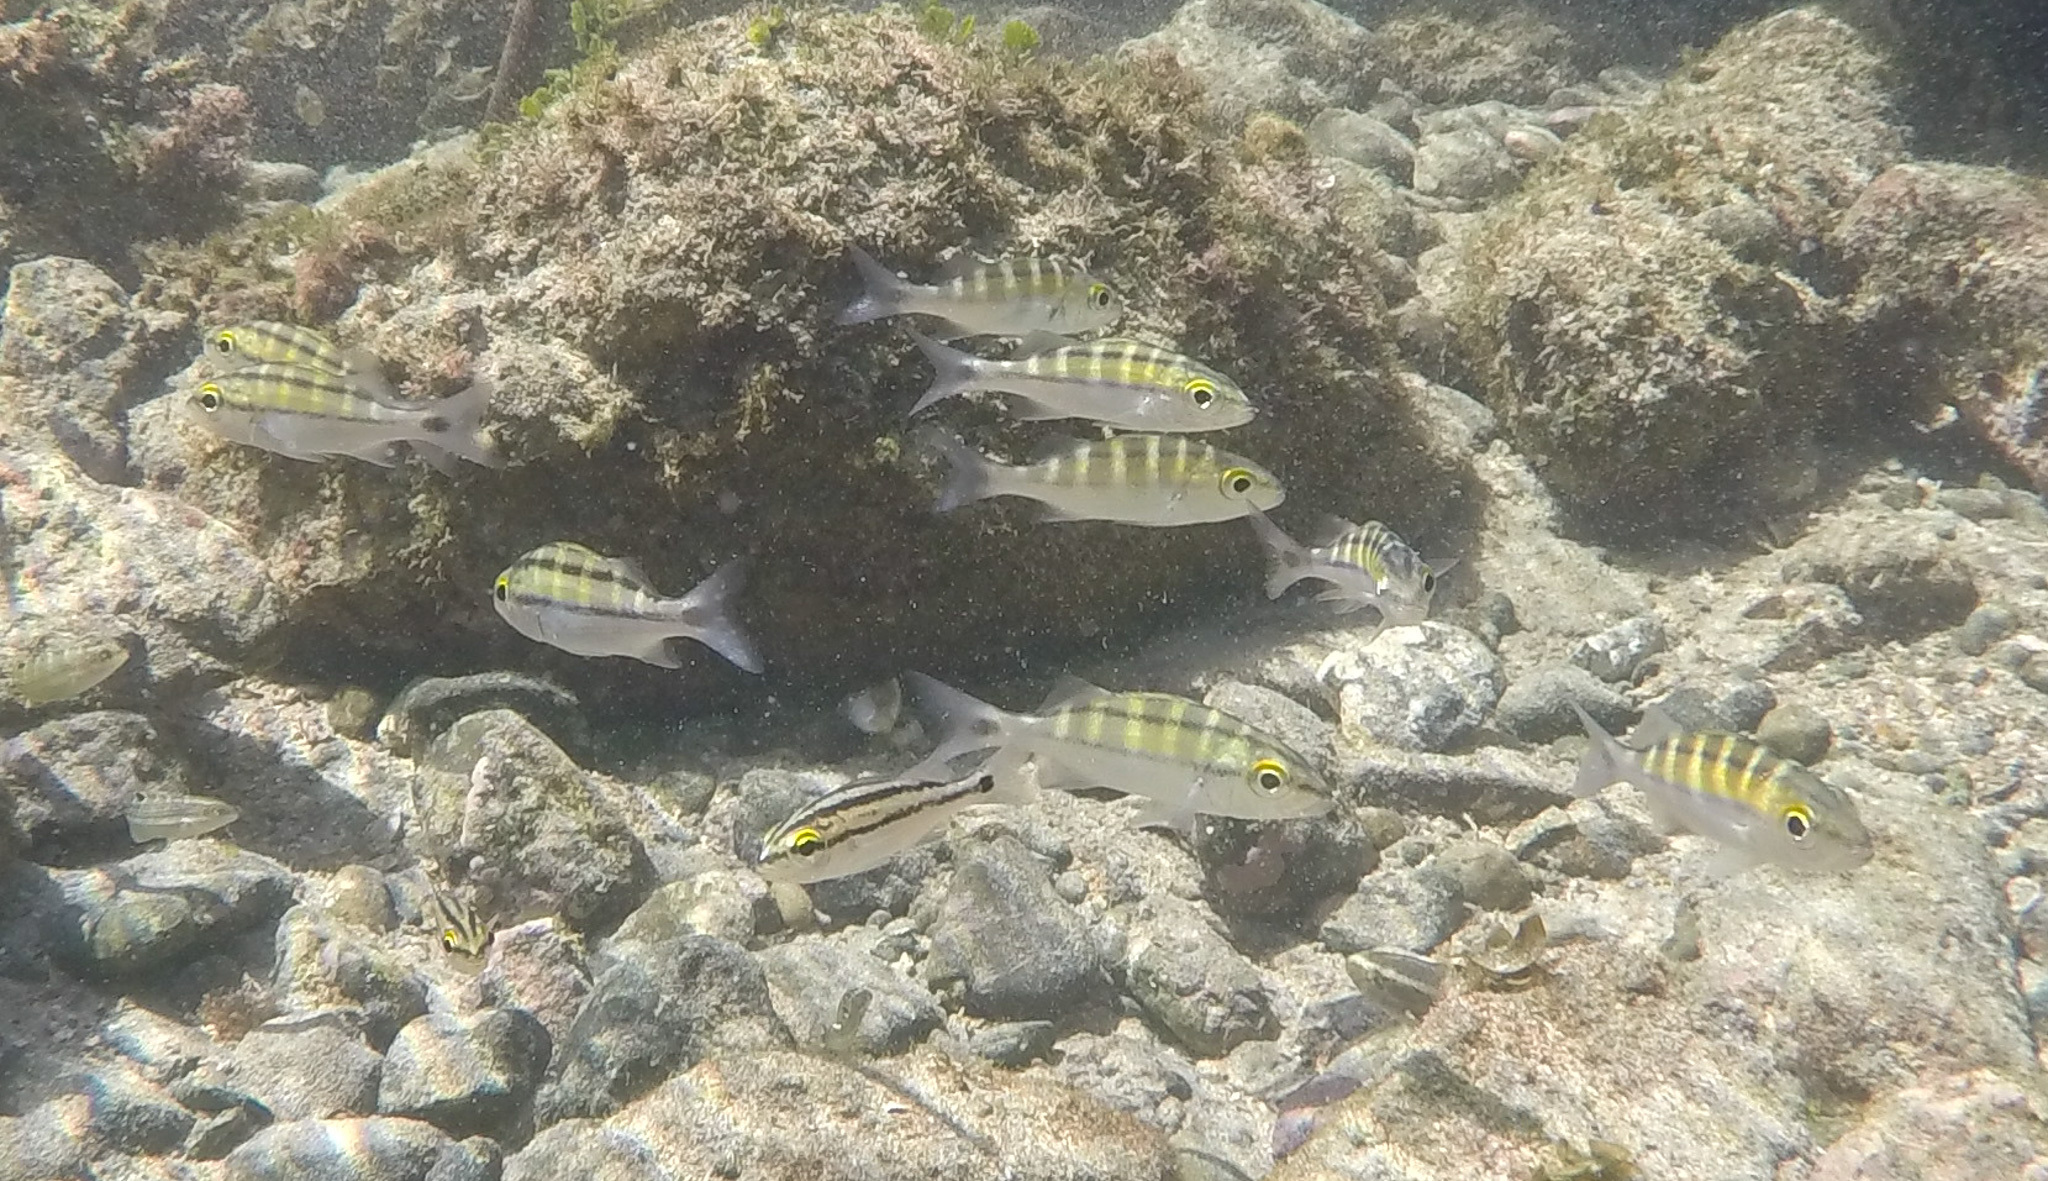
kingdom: Animalia
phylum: Chordata
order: Perciformes
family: Haemulidae
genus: Haemulon
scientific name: Haemulon sexfasciatum
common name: Graybar grunt
